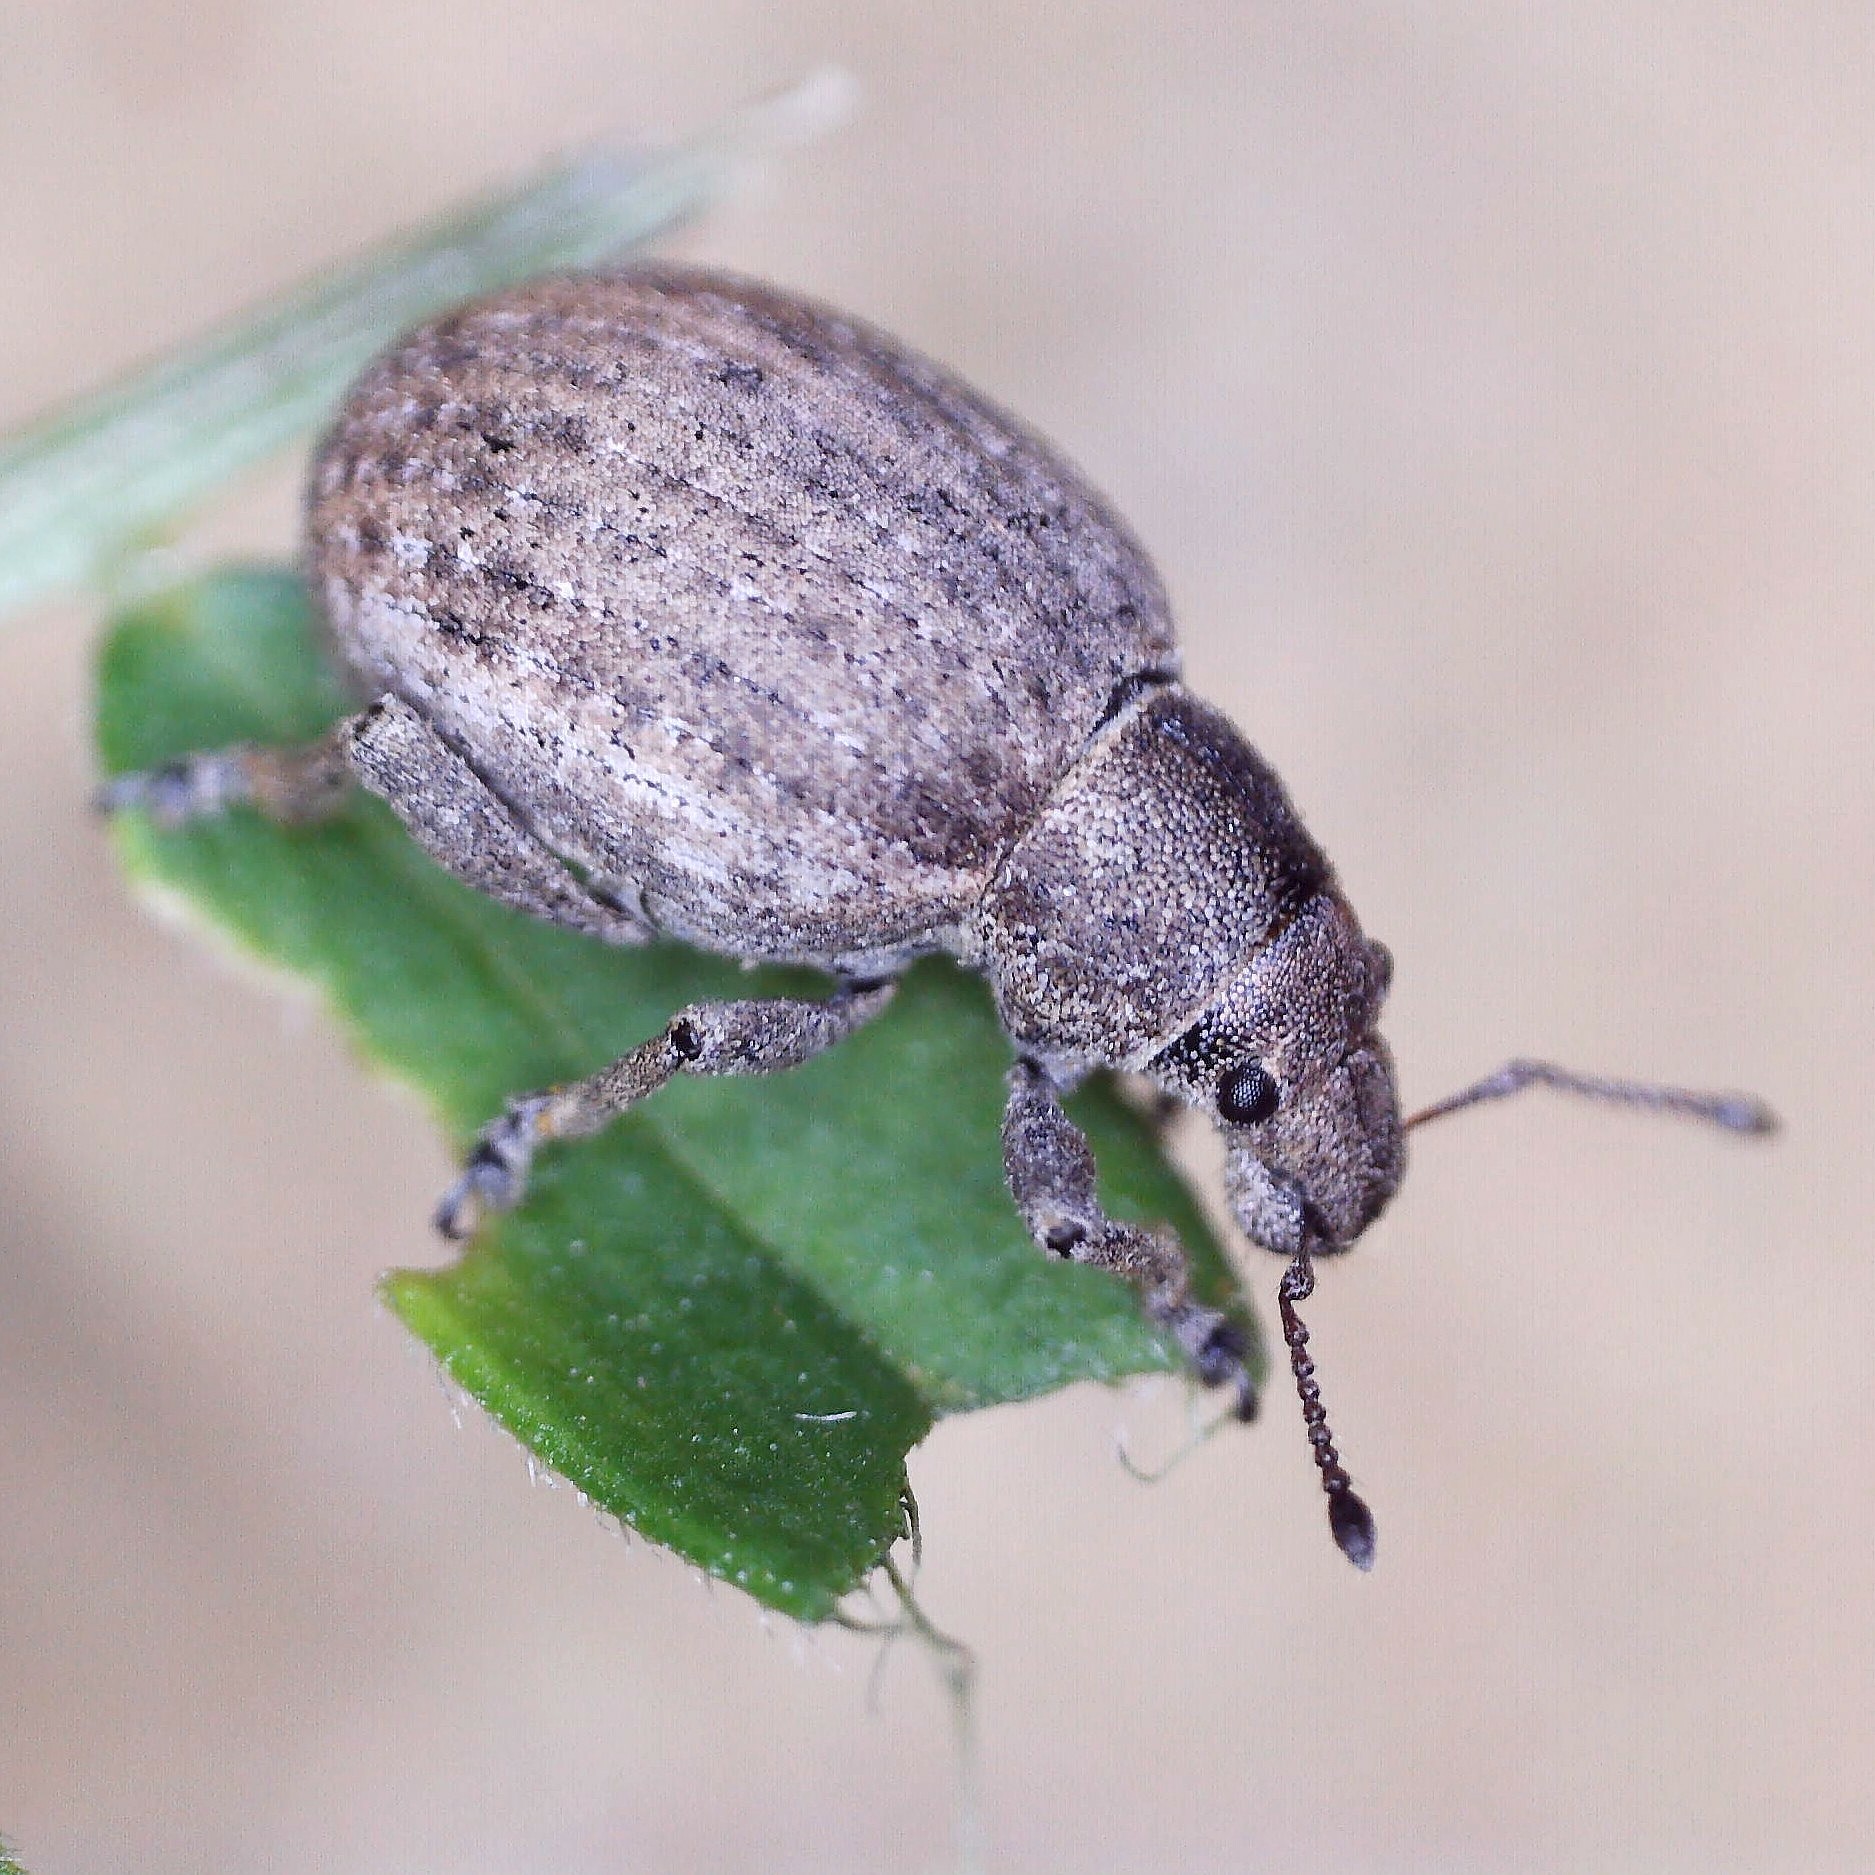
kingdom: Animalia
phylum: Arthropoda
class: Insecta
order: Coleoptera
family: Curculionidae
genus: Attactagenus
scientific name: Attactagenus plumbeus
